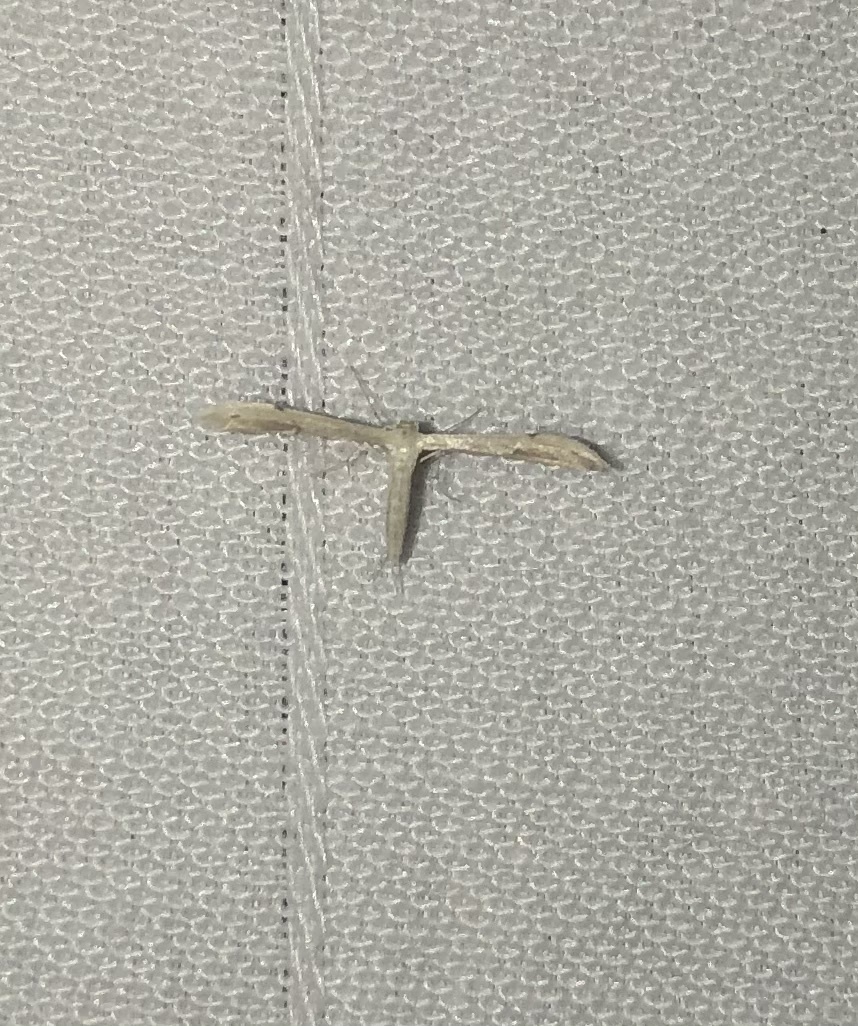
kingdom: Animalia
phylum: Arthropoda
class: Insecta
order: Lepidoptera
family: Pterophoridae
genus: Adaina
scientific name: Adaina
